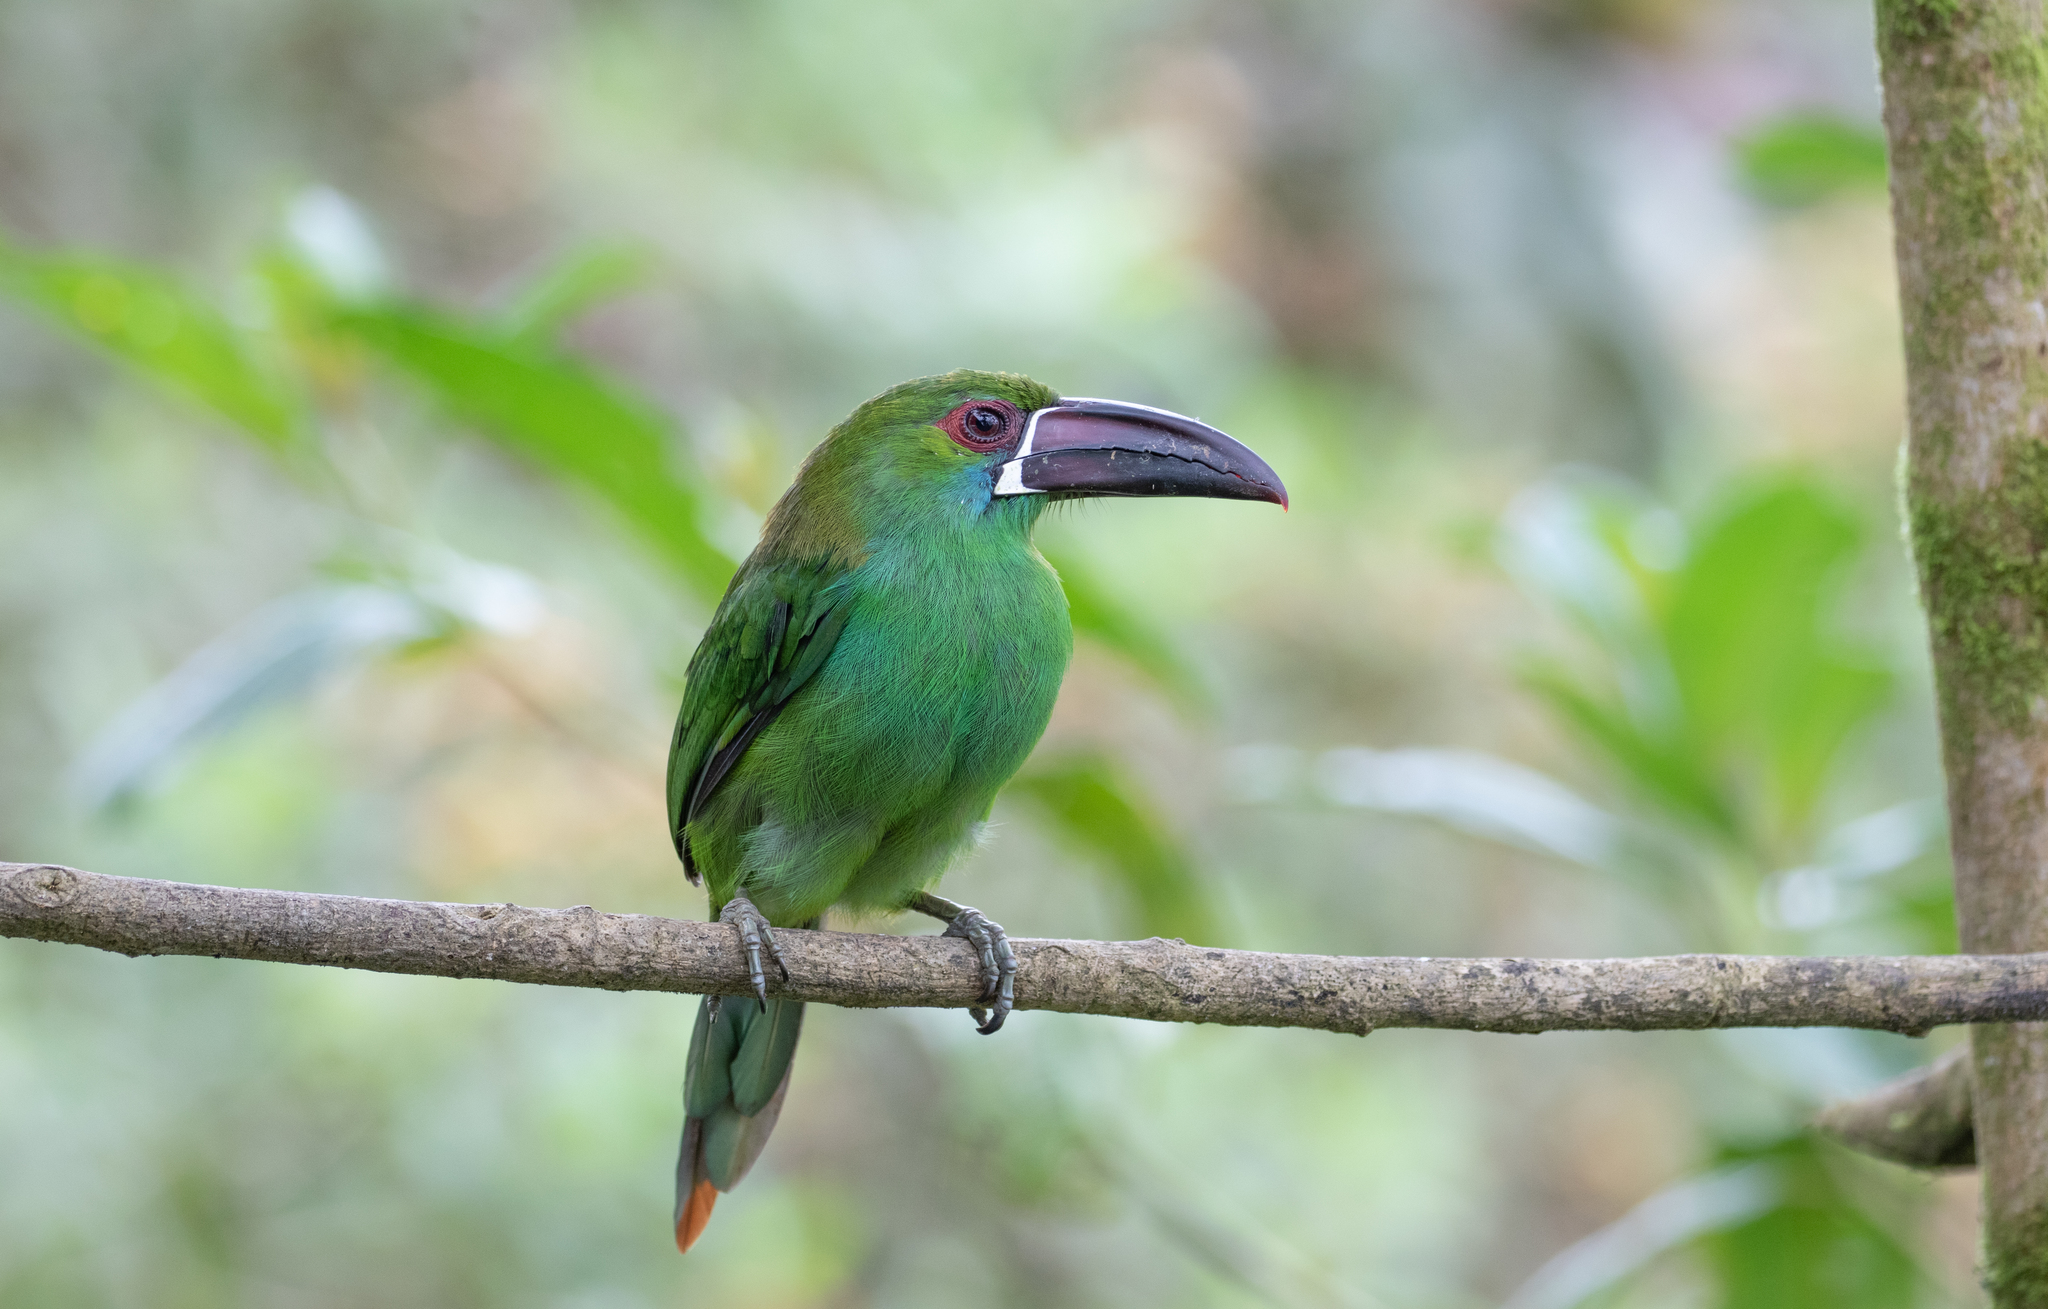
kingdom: Animalia
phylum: Chordata
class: Aves
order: Piciformes
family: Ramphastidae
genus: Aulacorhynchus
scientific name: Aulacorhynchus haematopygus
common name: Crimson-rumped toucanet
